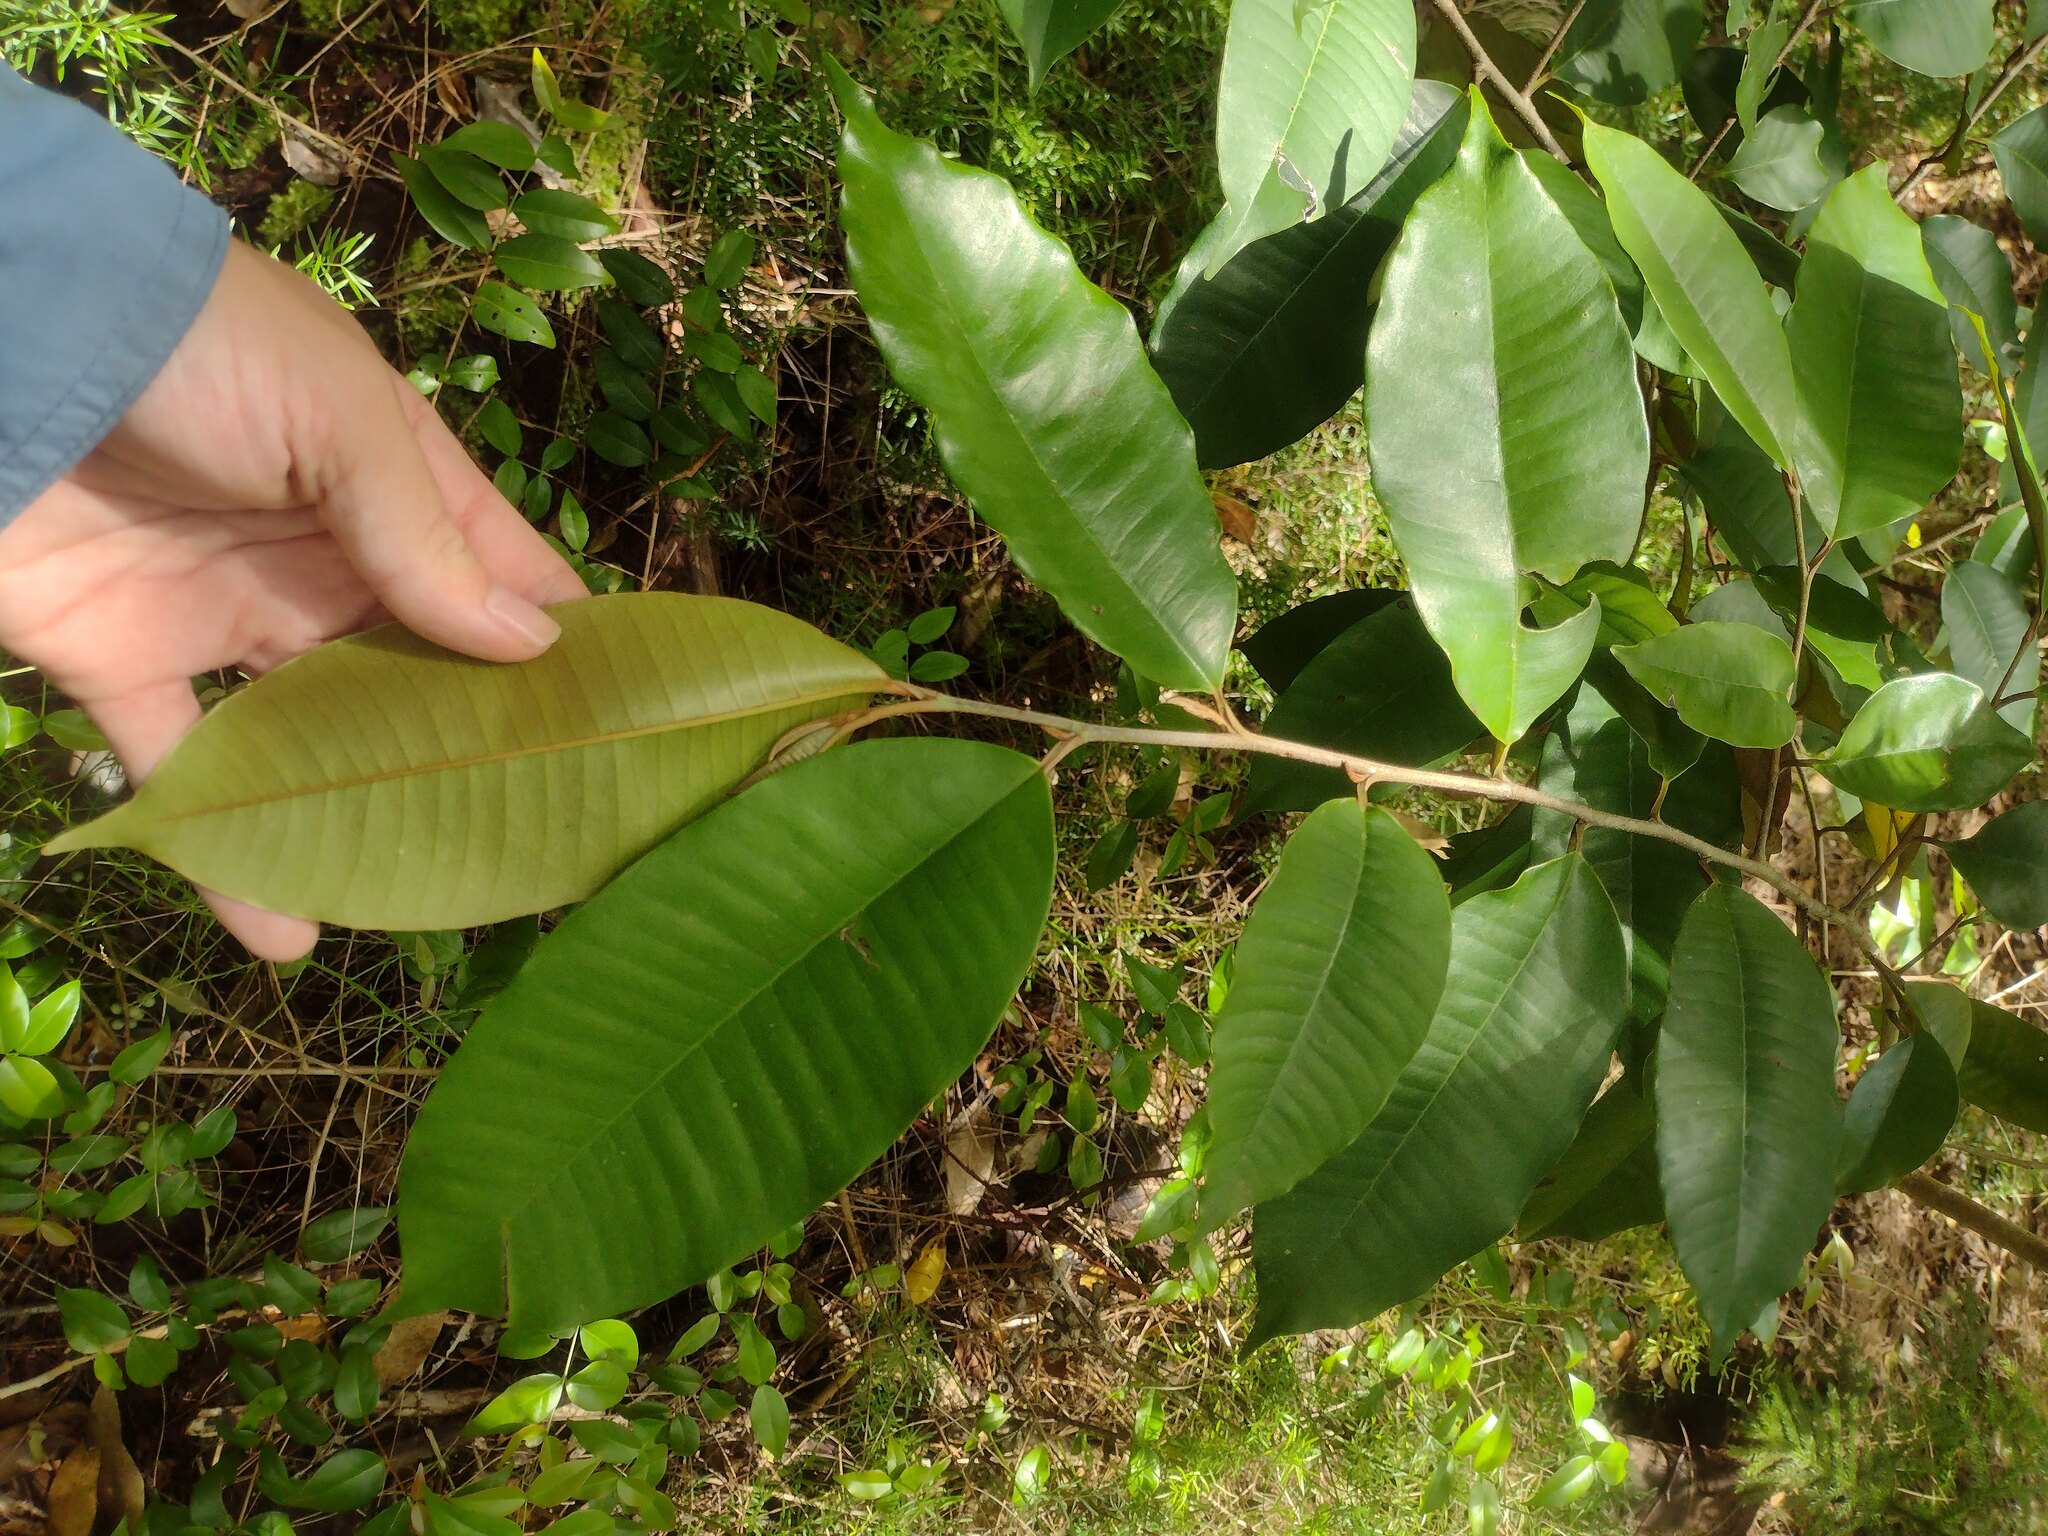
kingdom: Plantae
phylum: Tracheophyta
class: Magnoliopsida
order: Ericales
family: Sapotaceae
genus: Chrysophyllum
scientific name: Chrysophyllum oliviforme
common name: Satinleaf
